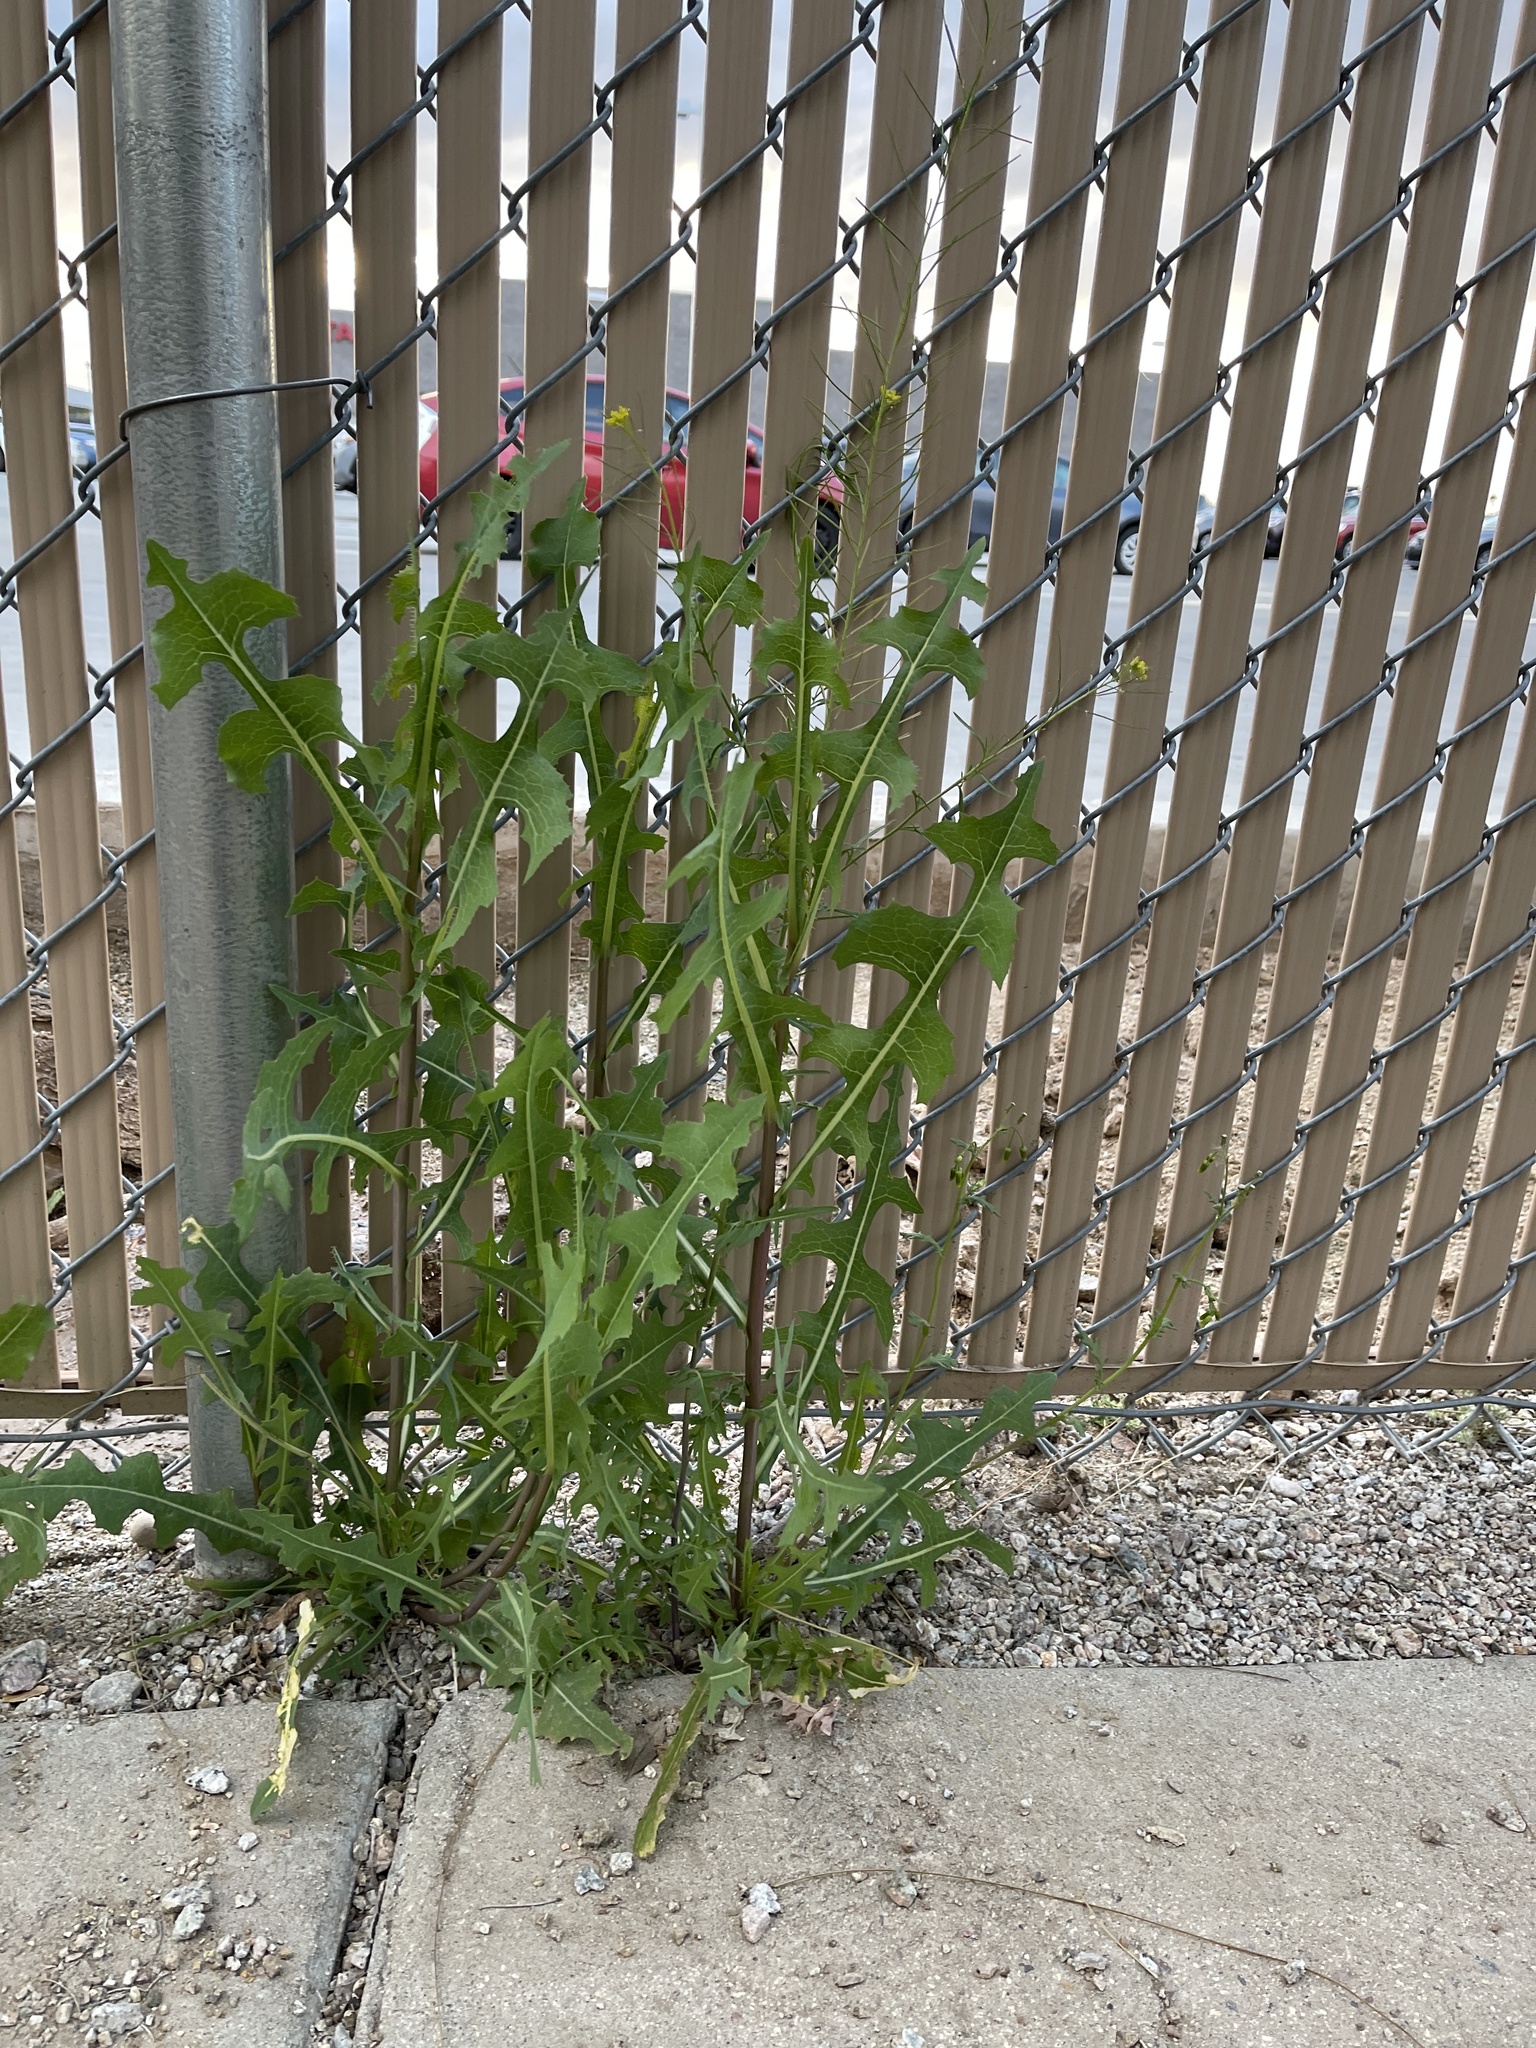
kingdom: Plantae
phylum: Tracheophyta
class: Magnoliopsida
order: Asterales
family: Asteraceae
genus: Lactuca
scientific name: Lactuca serriola
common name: Prickly lettuce
